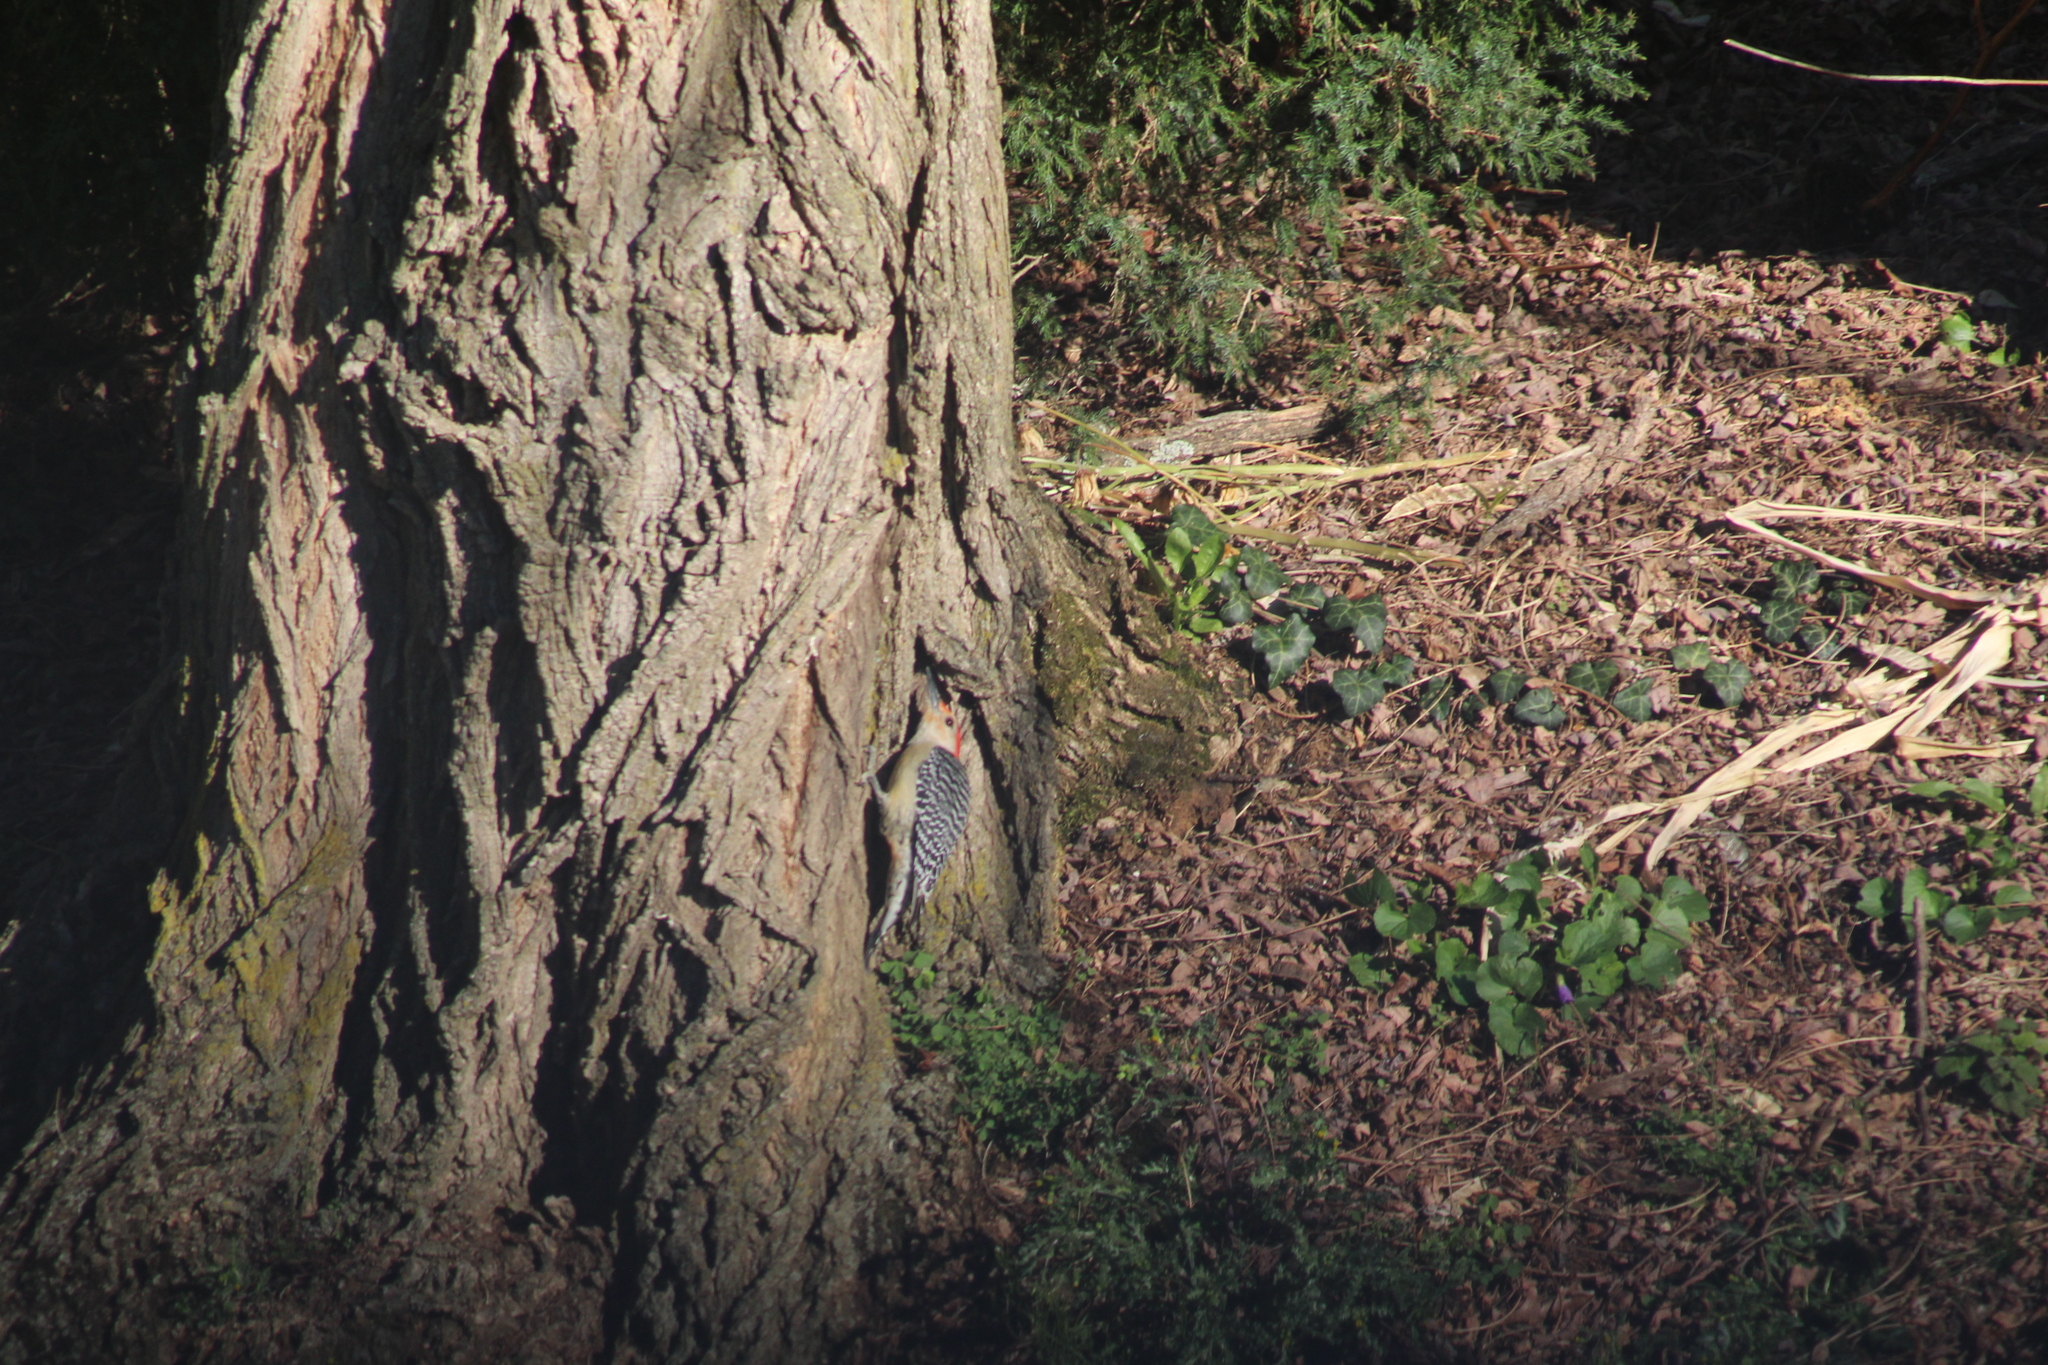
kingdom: Animalia
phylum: Chordata
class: Aves
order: Piciformes
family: Picidae
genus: Melanerpes
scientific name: Melanerpes carolinus
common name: Red-bellied woodpecker
